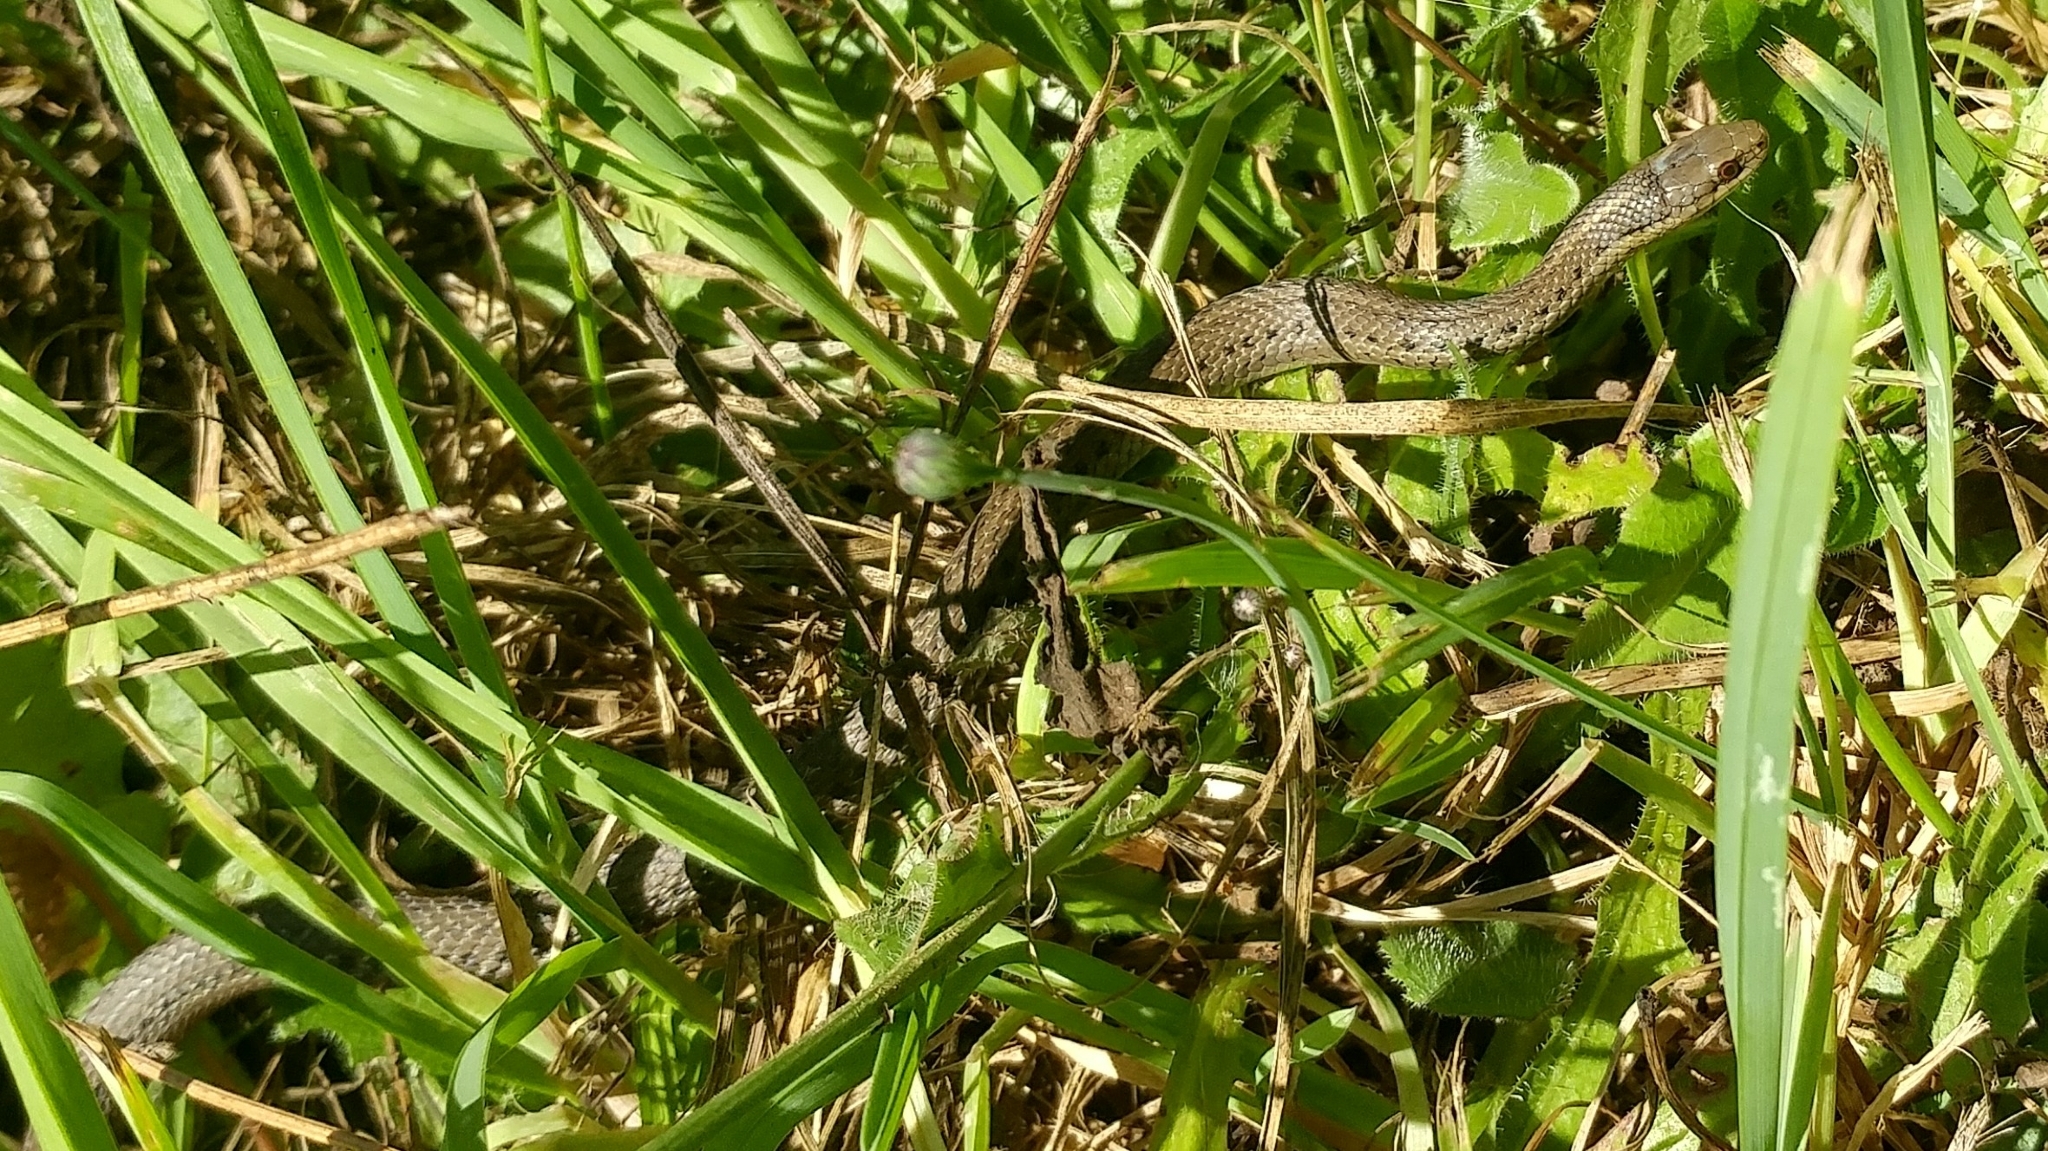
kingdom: Animalia
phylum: Chordata
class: Squamata
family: Colubridae
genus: Thamnophis
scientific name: Thamnophis ordinoides
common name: Northwestern garter snake
